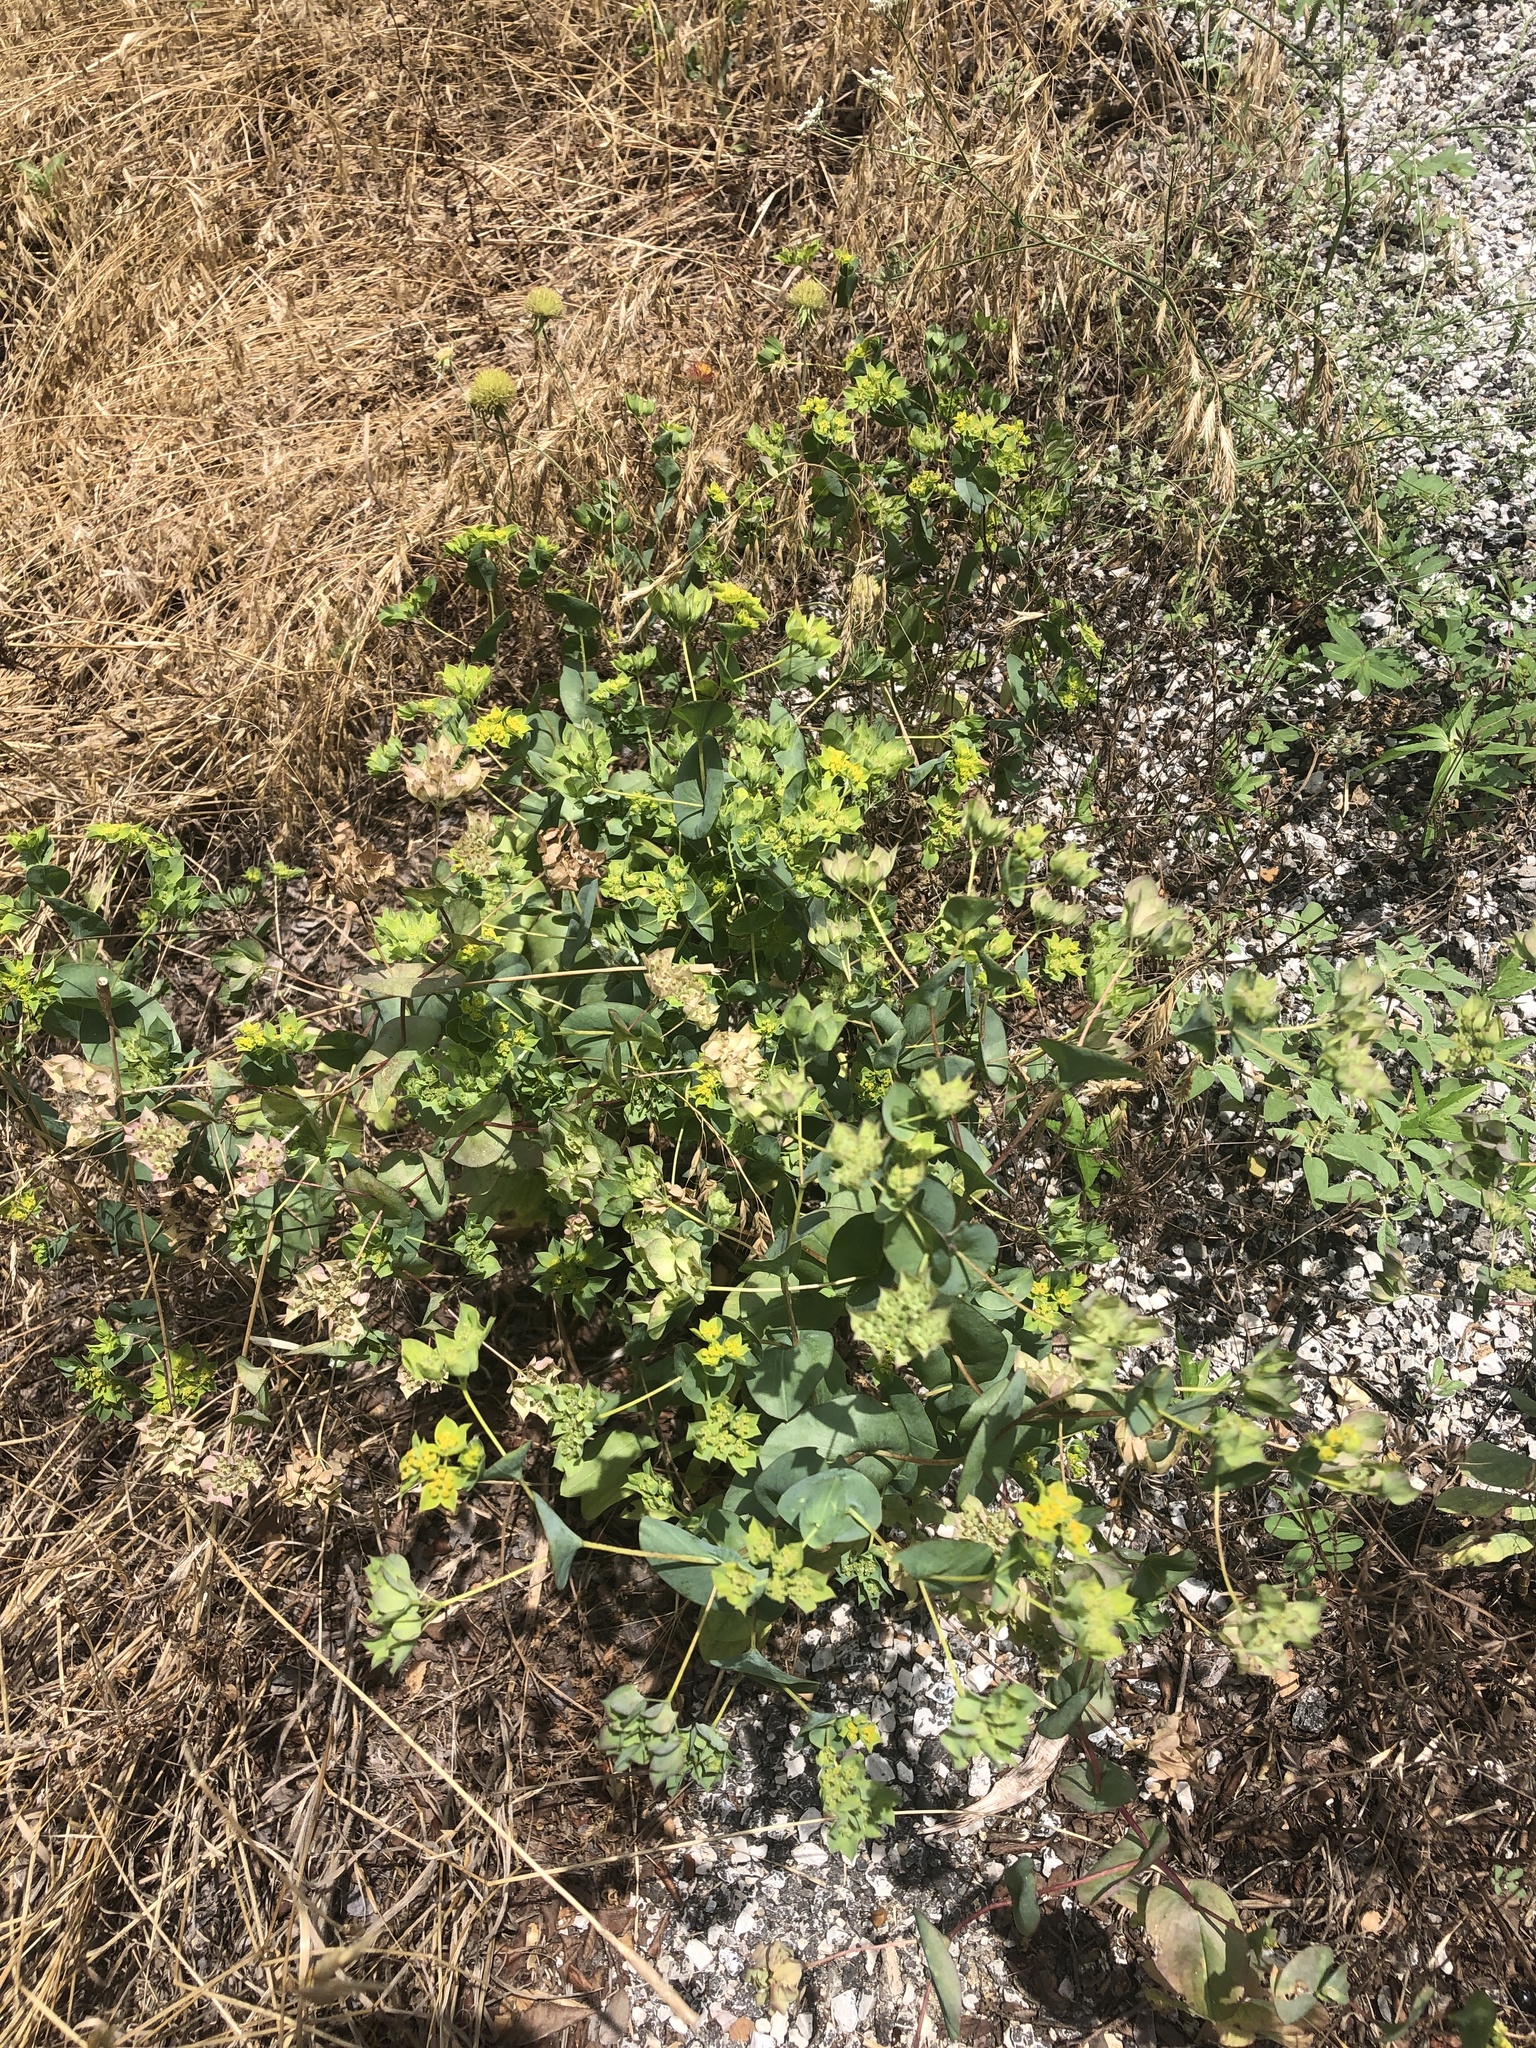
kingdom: Plantae
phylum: Tracheophyta
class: Magnoliopsida
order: Apiales
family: Apiaceae
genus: Bupleurum
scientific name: Bupleurum rotundifolium
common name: Thorow-wax
